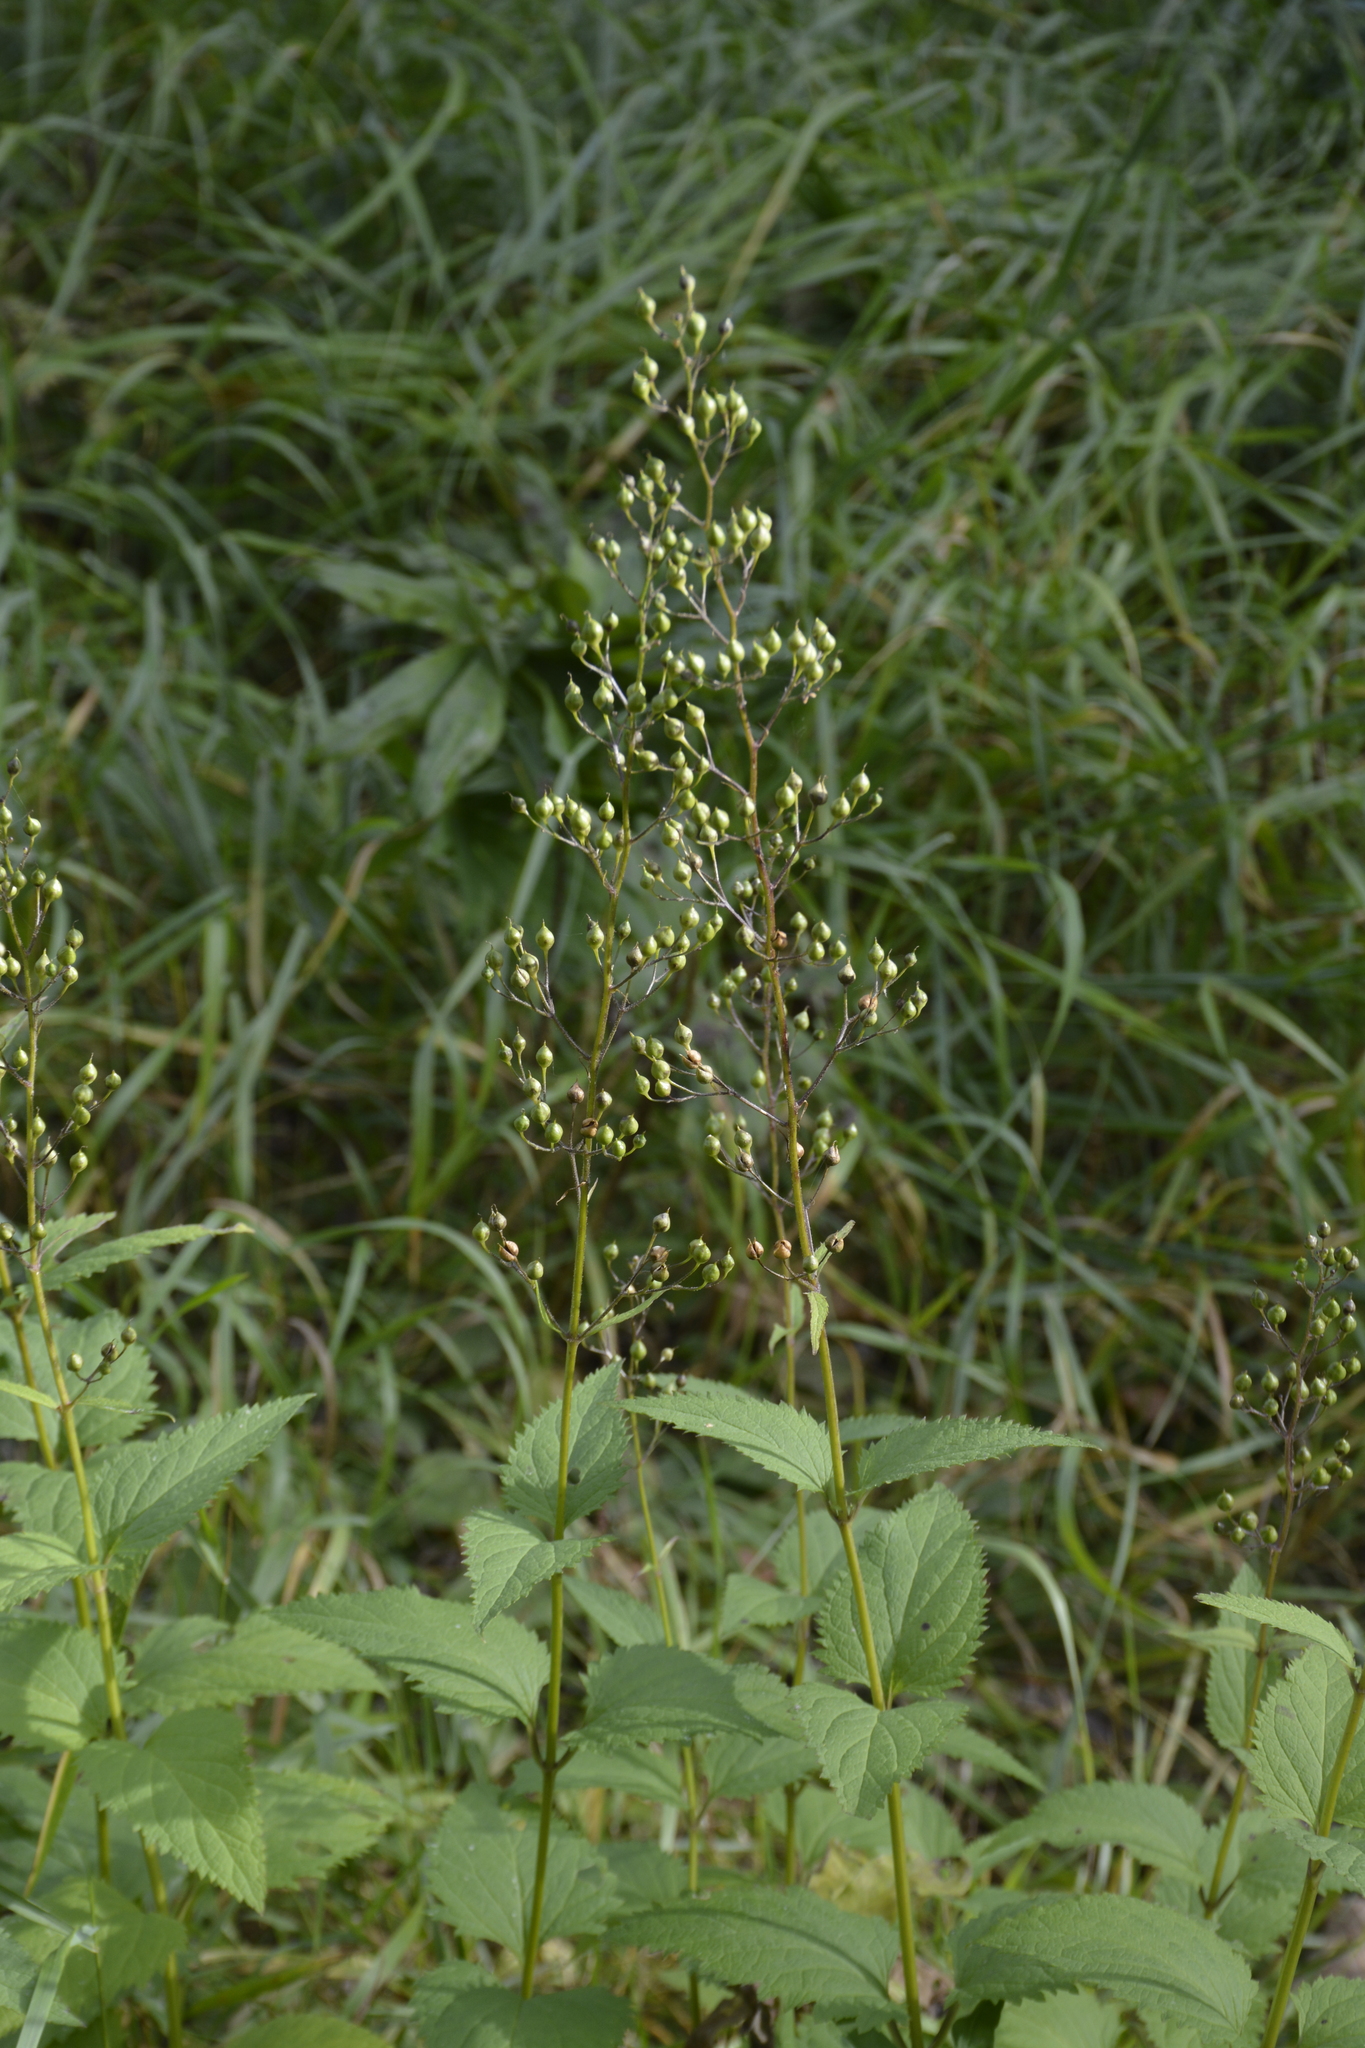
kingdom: Plantae
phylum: Tracheophyta
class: Magnoliopsida
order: Lamiales
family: Scrophulariaceae
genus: Scrophularia
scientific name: Scrophularia nodosa
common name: Common figwort
